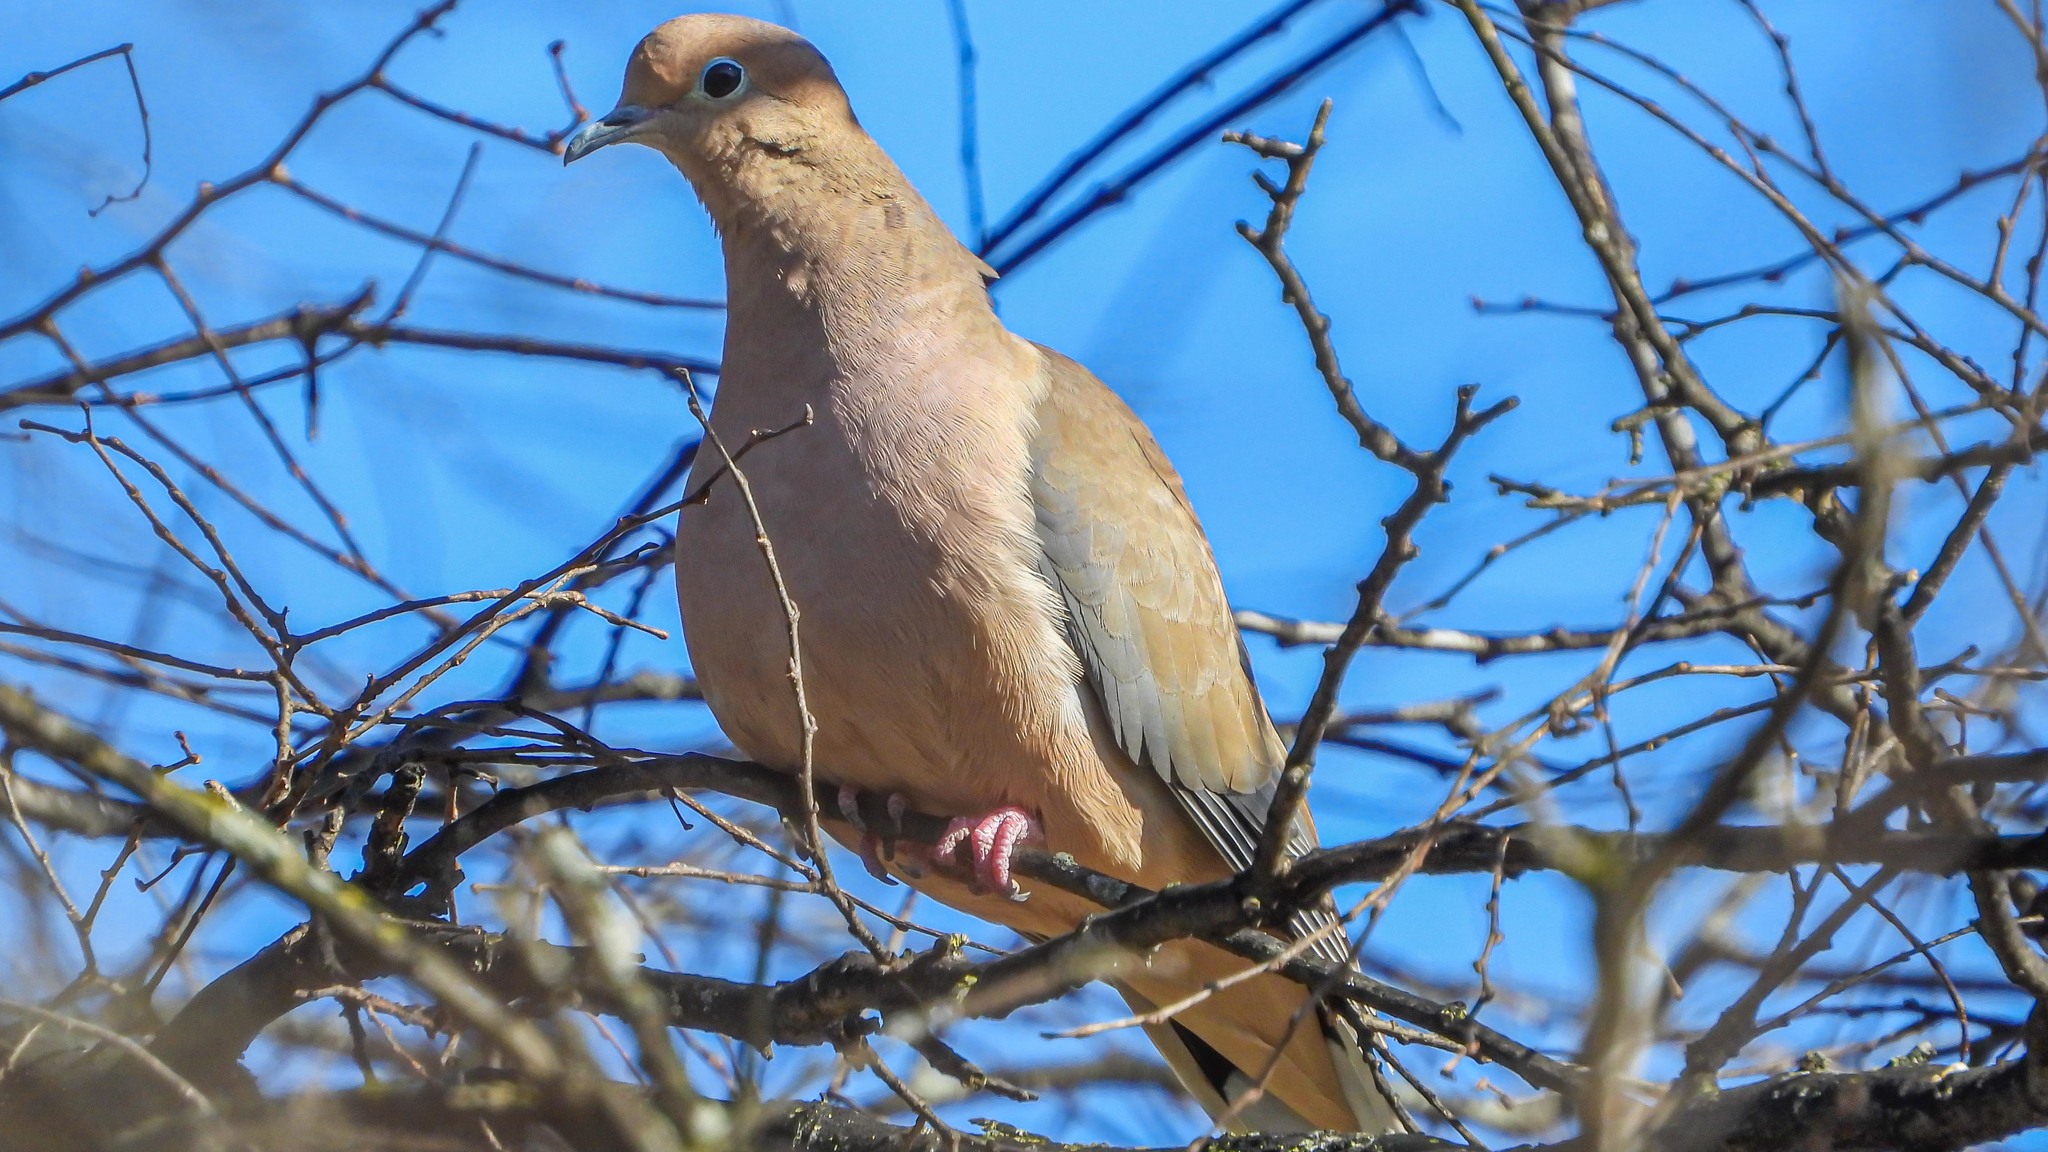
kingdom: Animalia
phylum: Chordata
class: Aves
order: Columbiformes
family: Columbidae
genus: Zenaida
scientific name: Zenaida macroura
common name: Mourning dove
